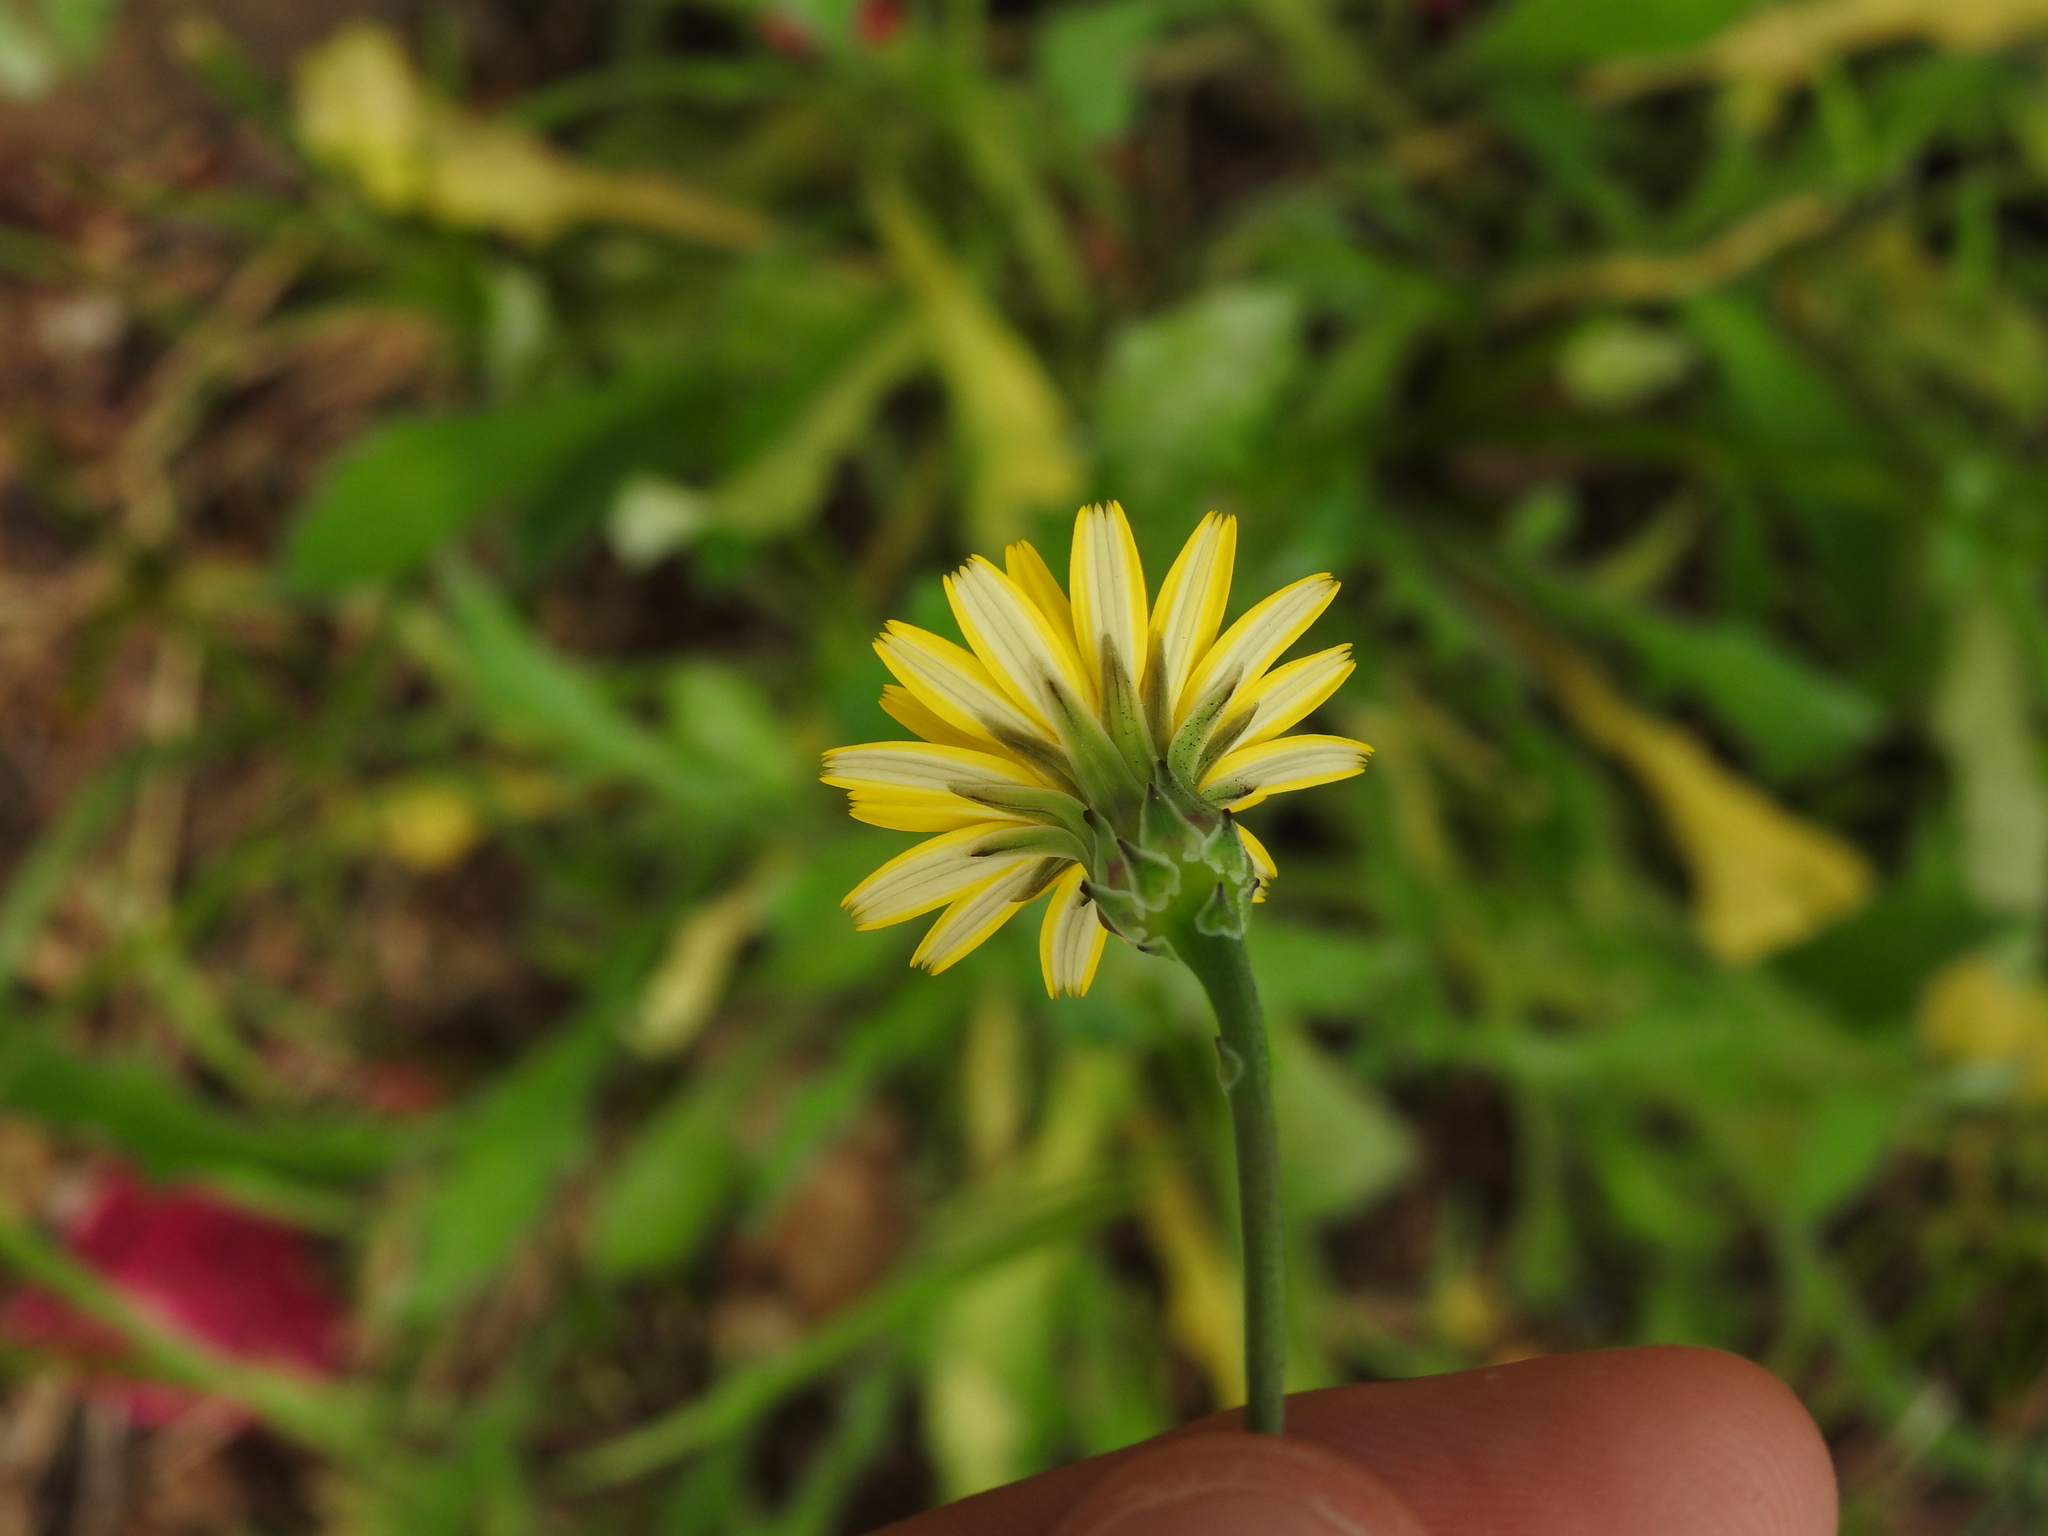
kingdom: Plantae
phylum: Tracheophyta
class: Magnoliopsida
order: Asterales
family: Asteraceae
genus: Reichardia
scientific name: Reichardia picroides
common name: Common brighteyes
